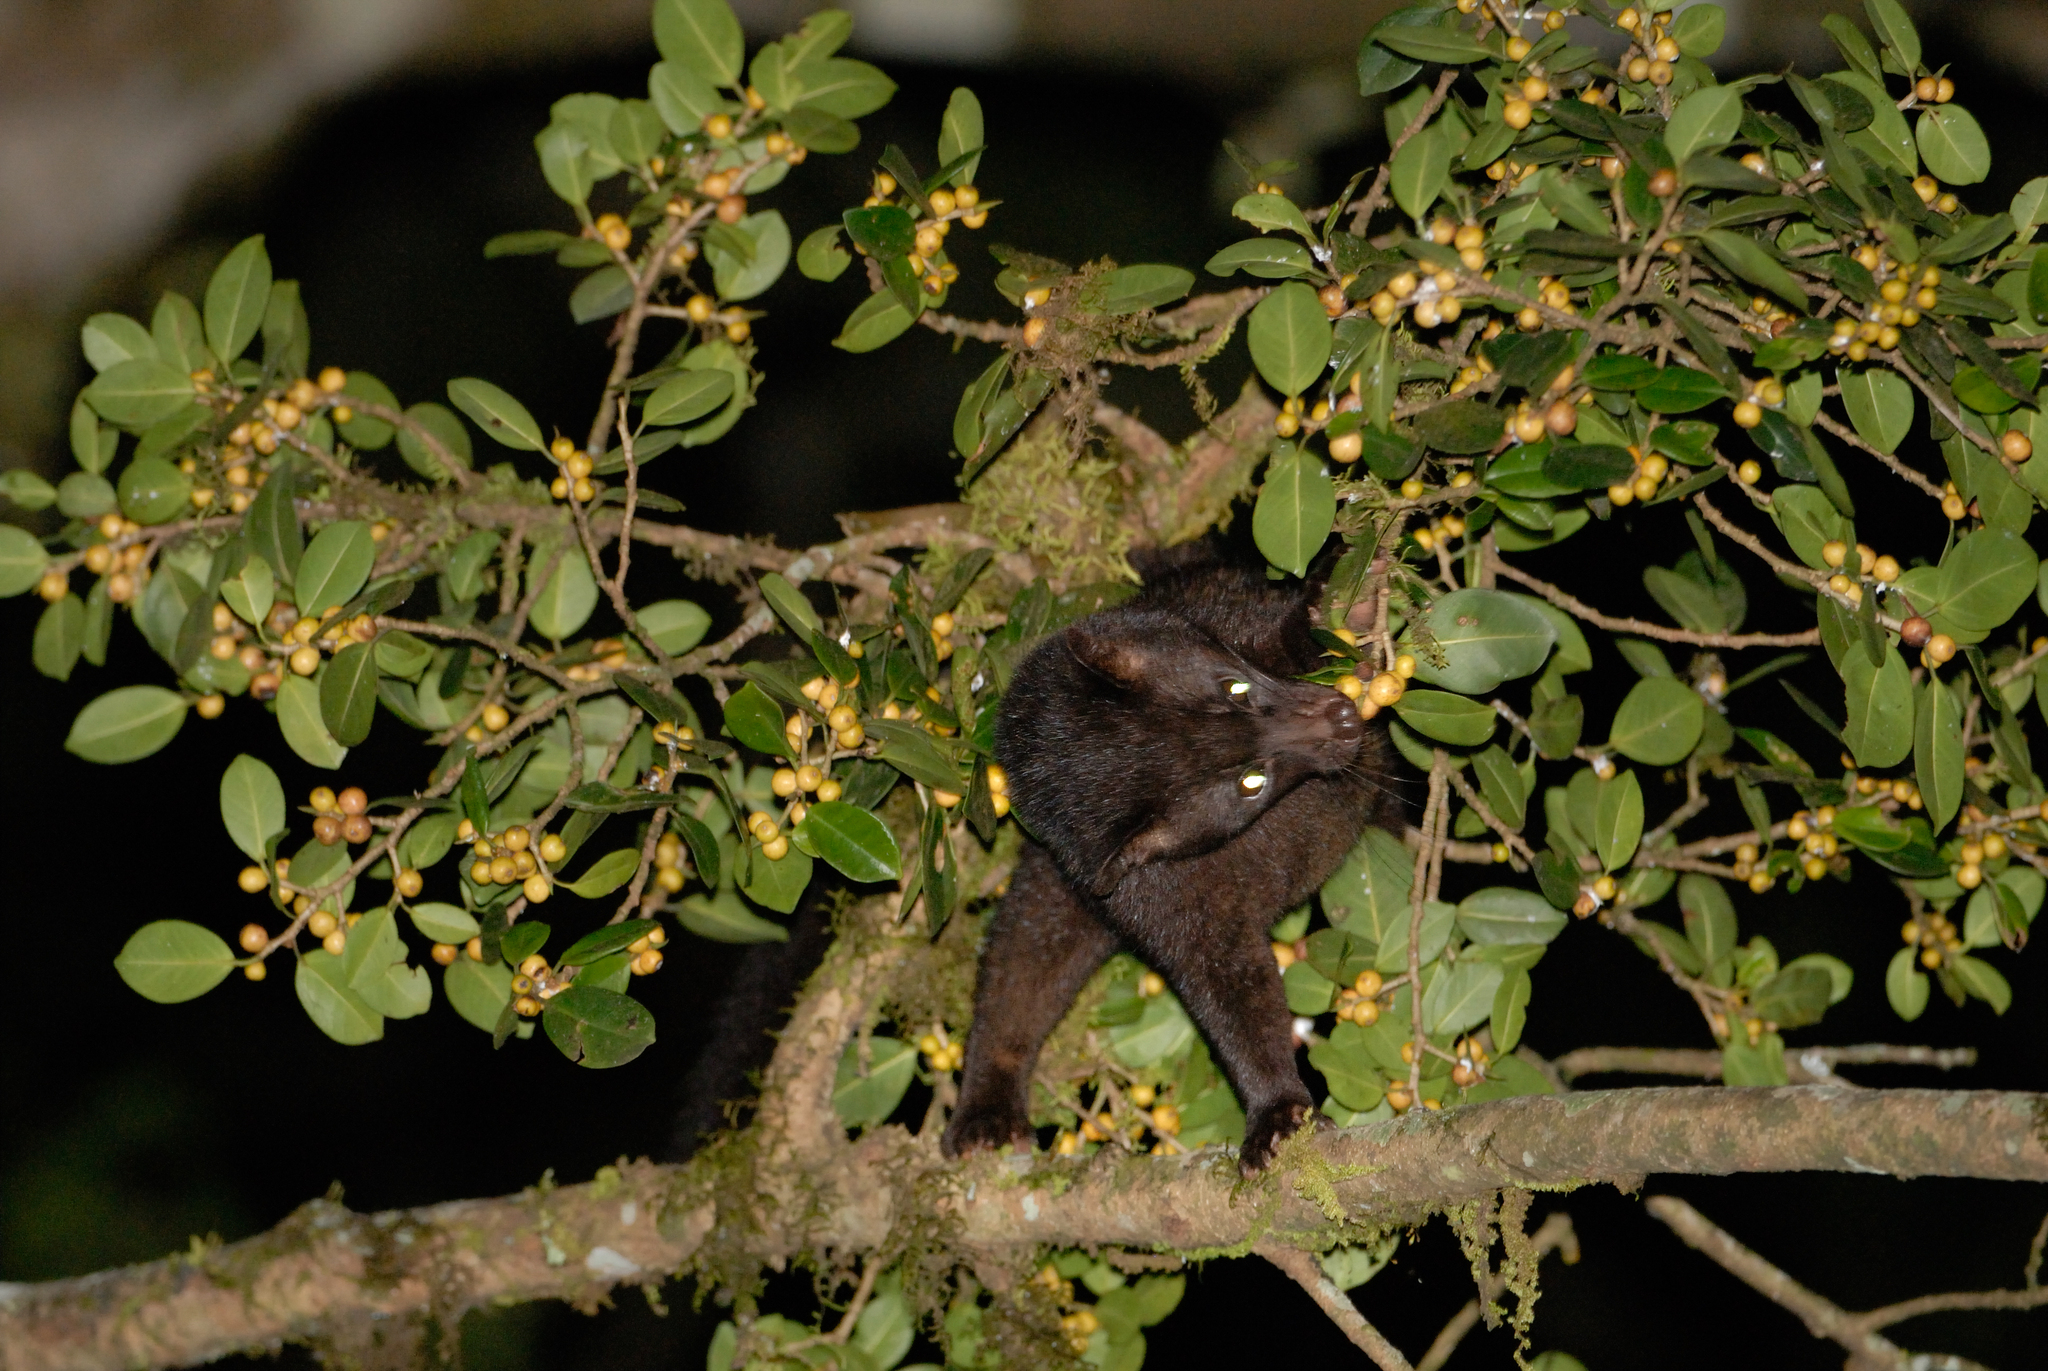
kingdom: Animalia
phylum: Chordata
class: Mammalia
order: Carnivora
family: Viverridae
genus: Paradoxurus
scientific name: Paradoxurus jerdoni
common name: Jerdon's palm civet
